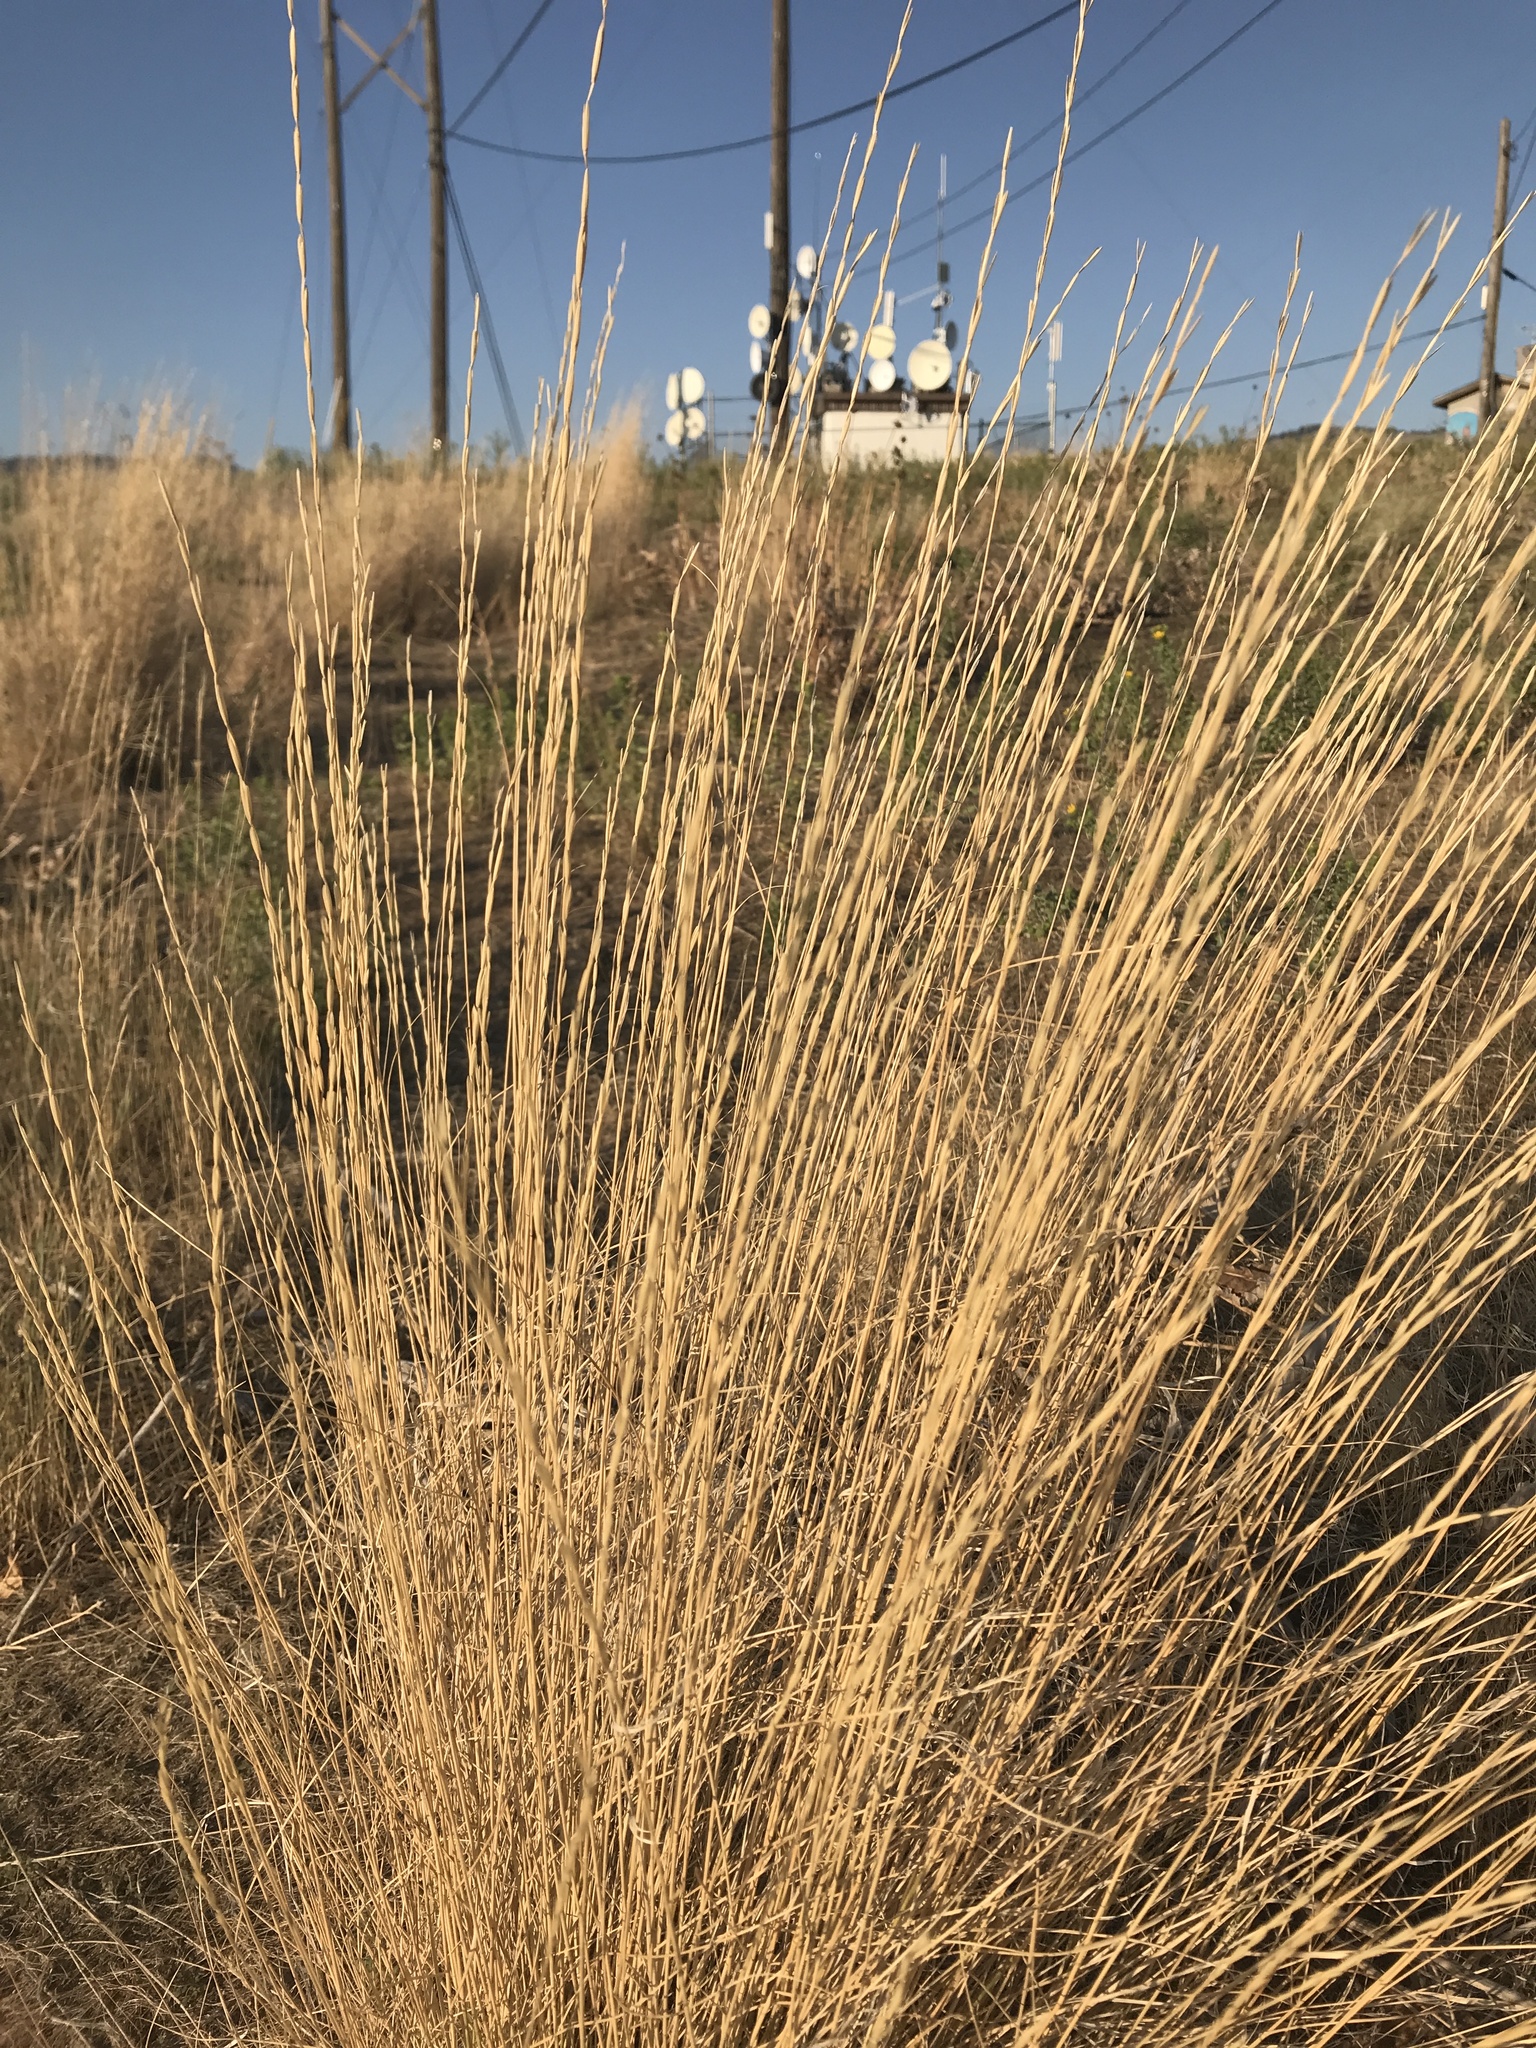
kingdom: Plantae
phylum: Tracheophyta
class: Liliopsida
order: Poales
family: Poaceae
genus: Leymus
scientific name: Leymus cinereus
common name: Basin wild rye
